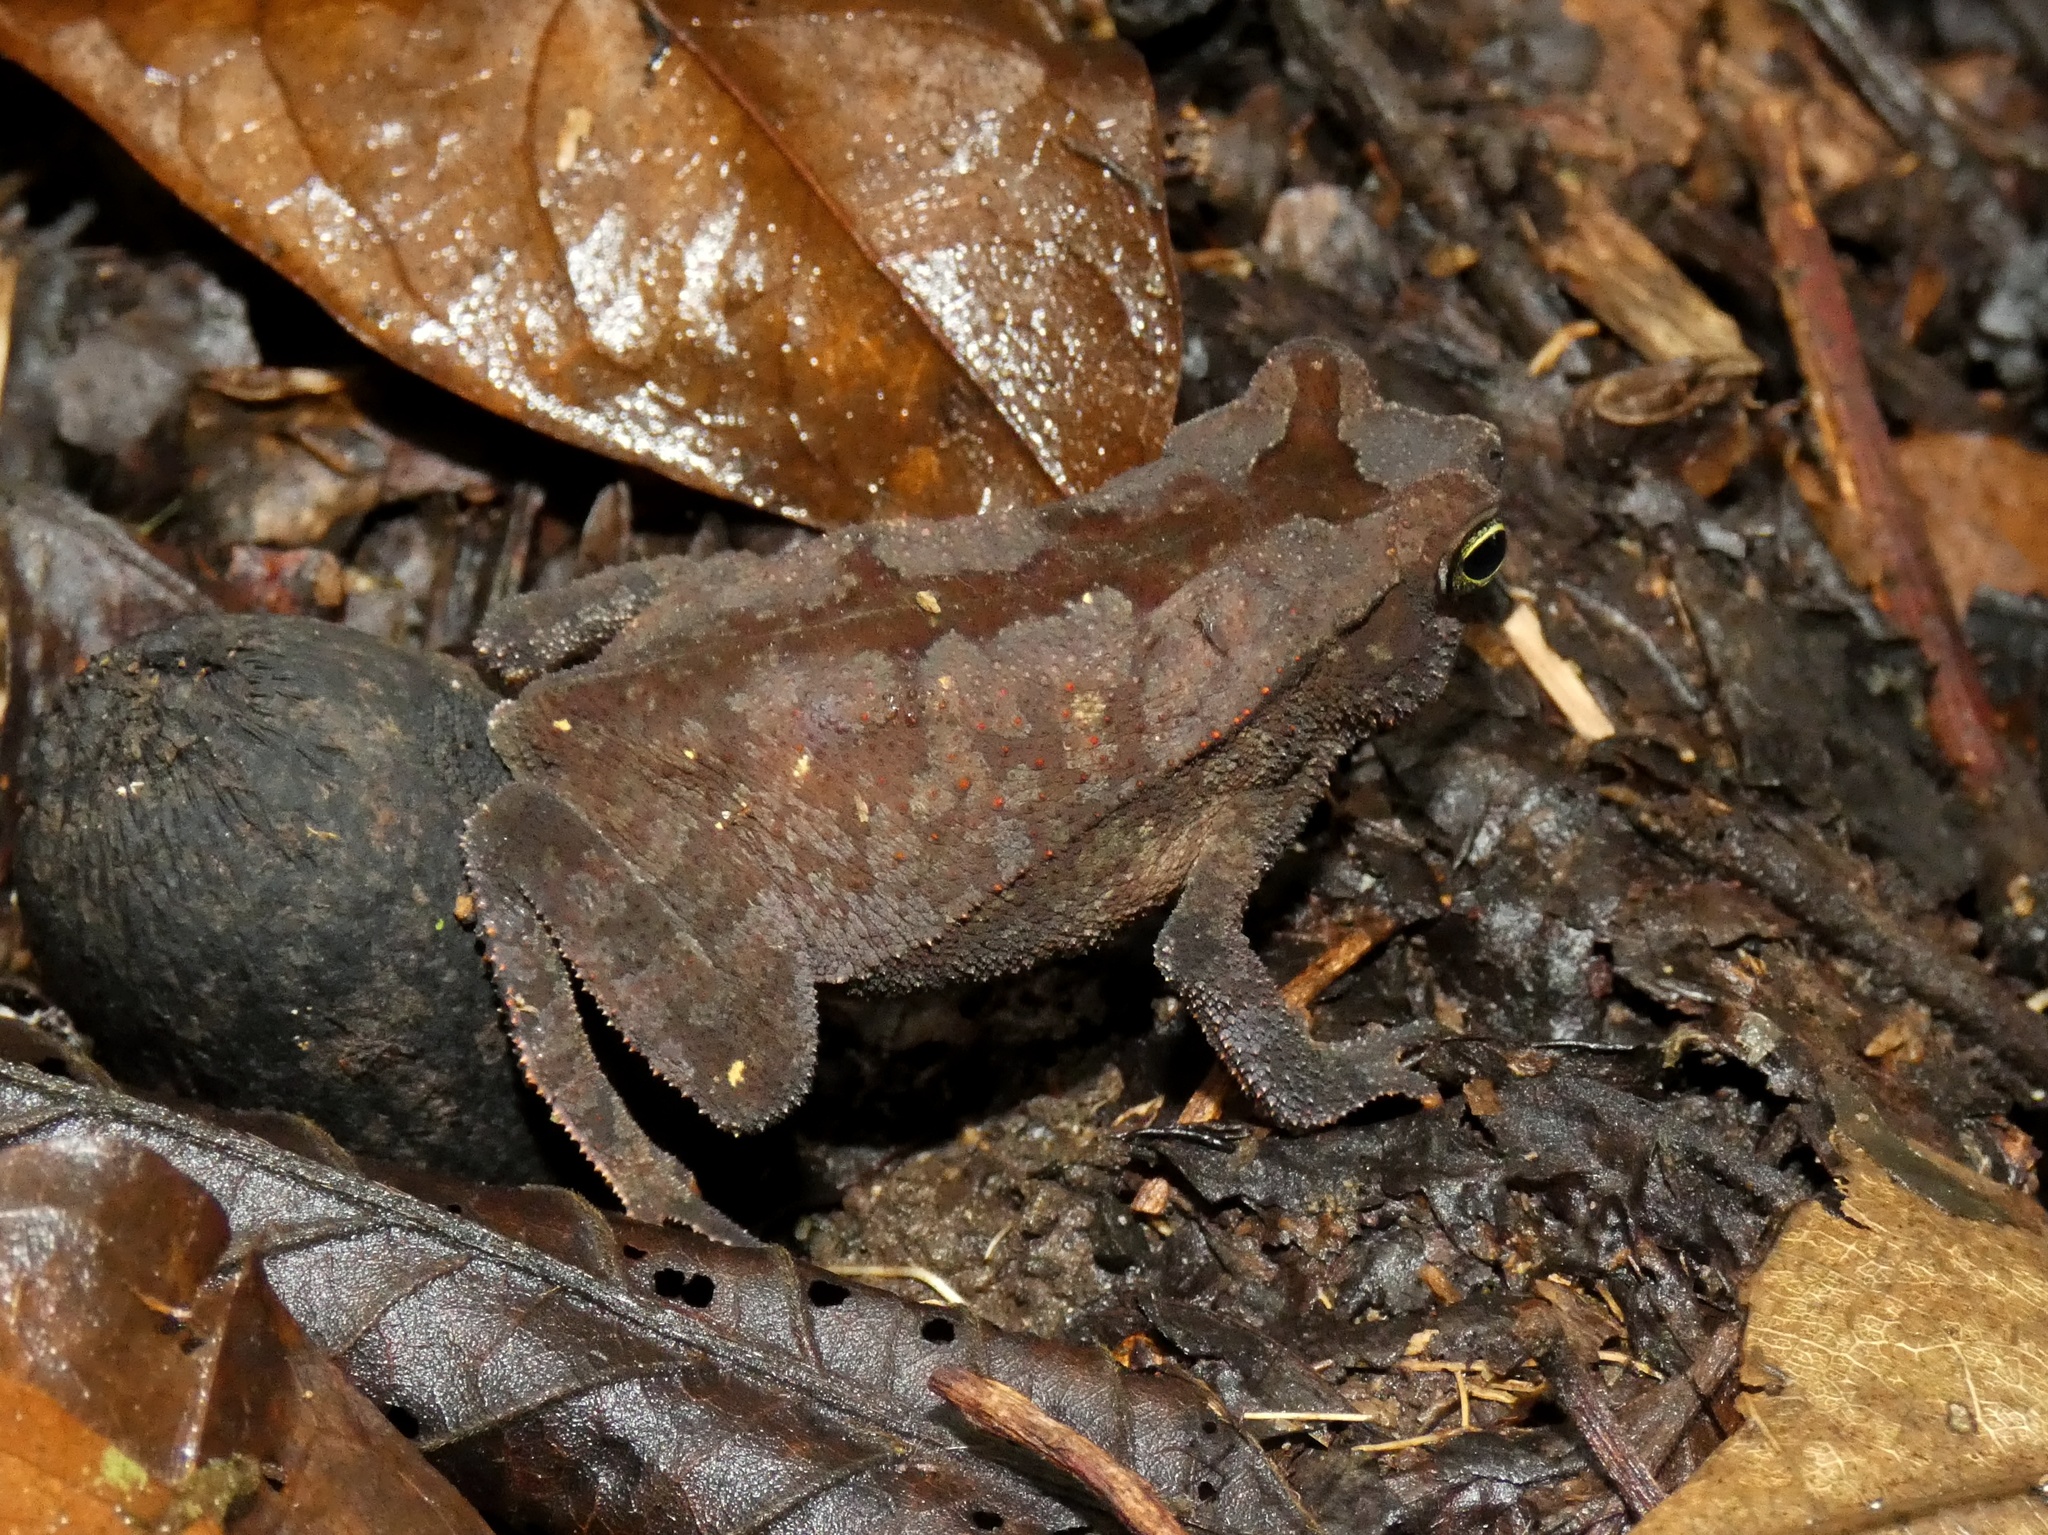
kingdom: Animalia
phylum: Chordata
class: Amphibia
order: Anura
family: Bufonidae
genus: Rhinella
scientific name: Rhinella alata
